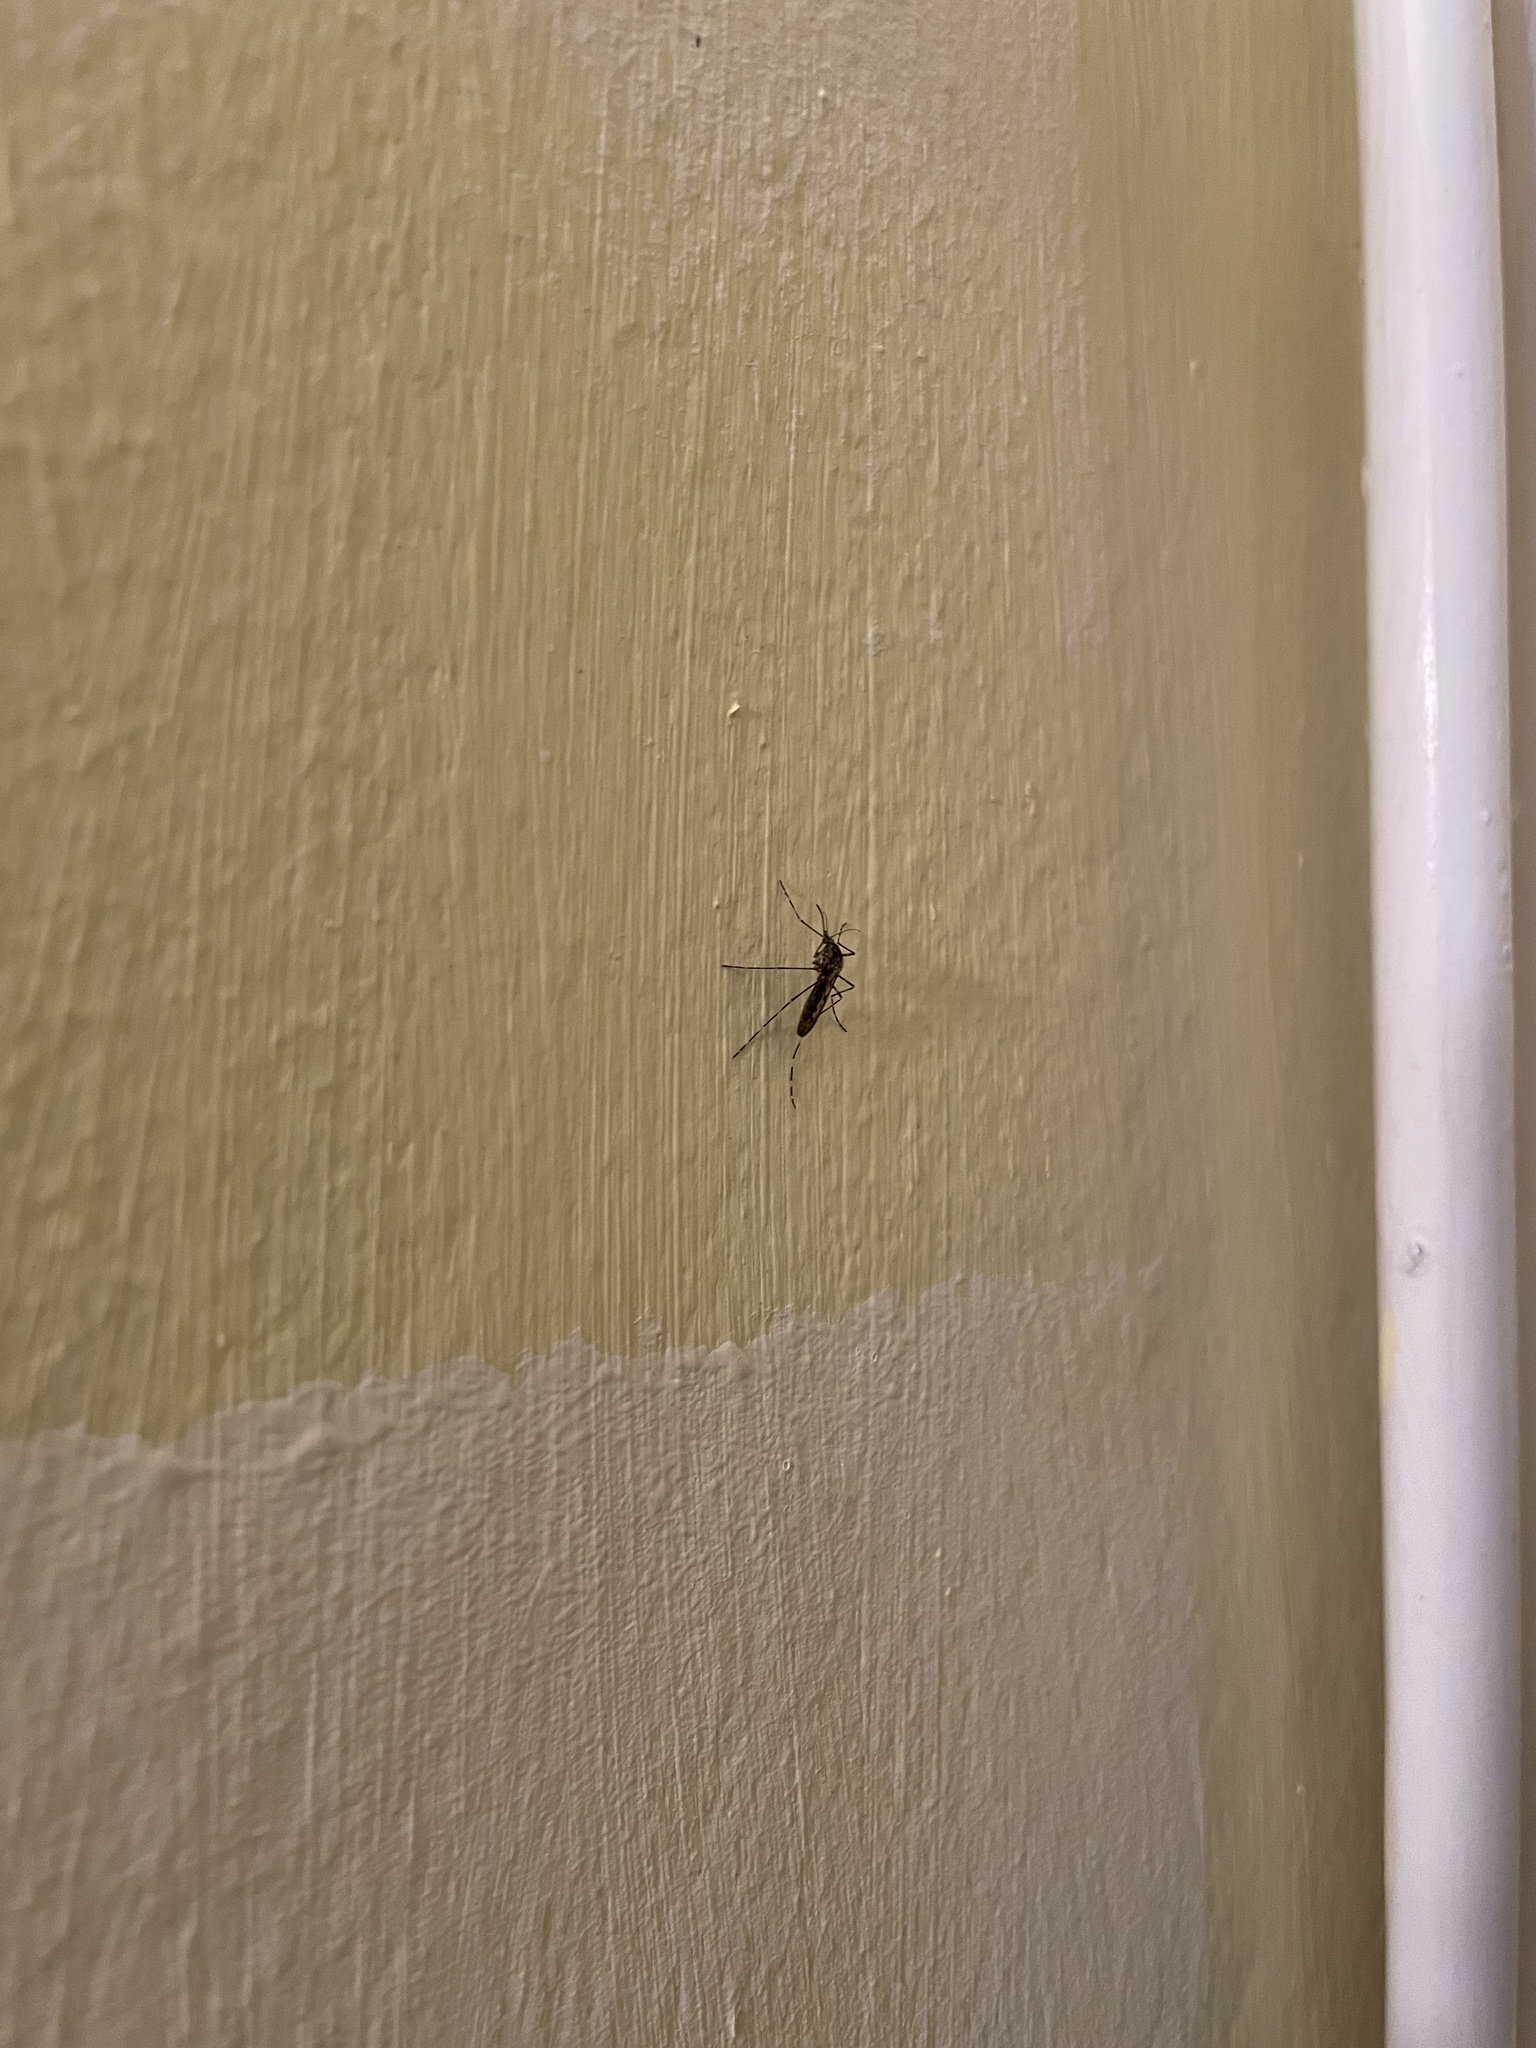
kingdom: Animalia
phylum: Arthropoda
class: Insecta
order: Diptera
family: Culicidae
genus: Culiseta
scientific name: Culiseta annulata
